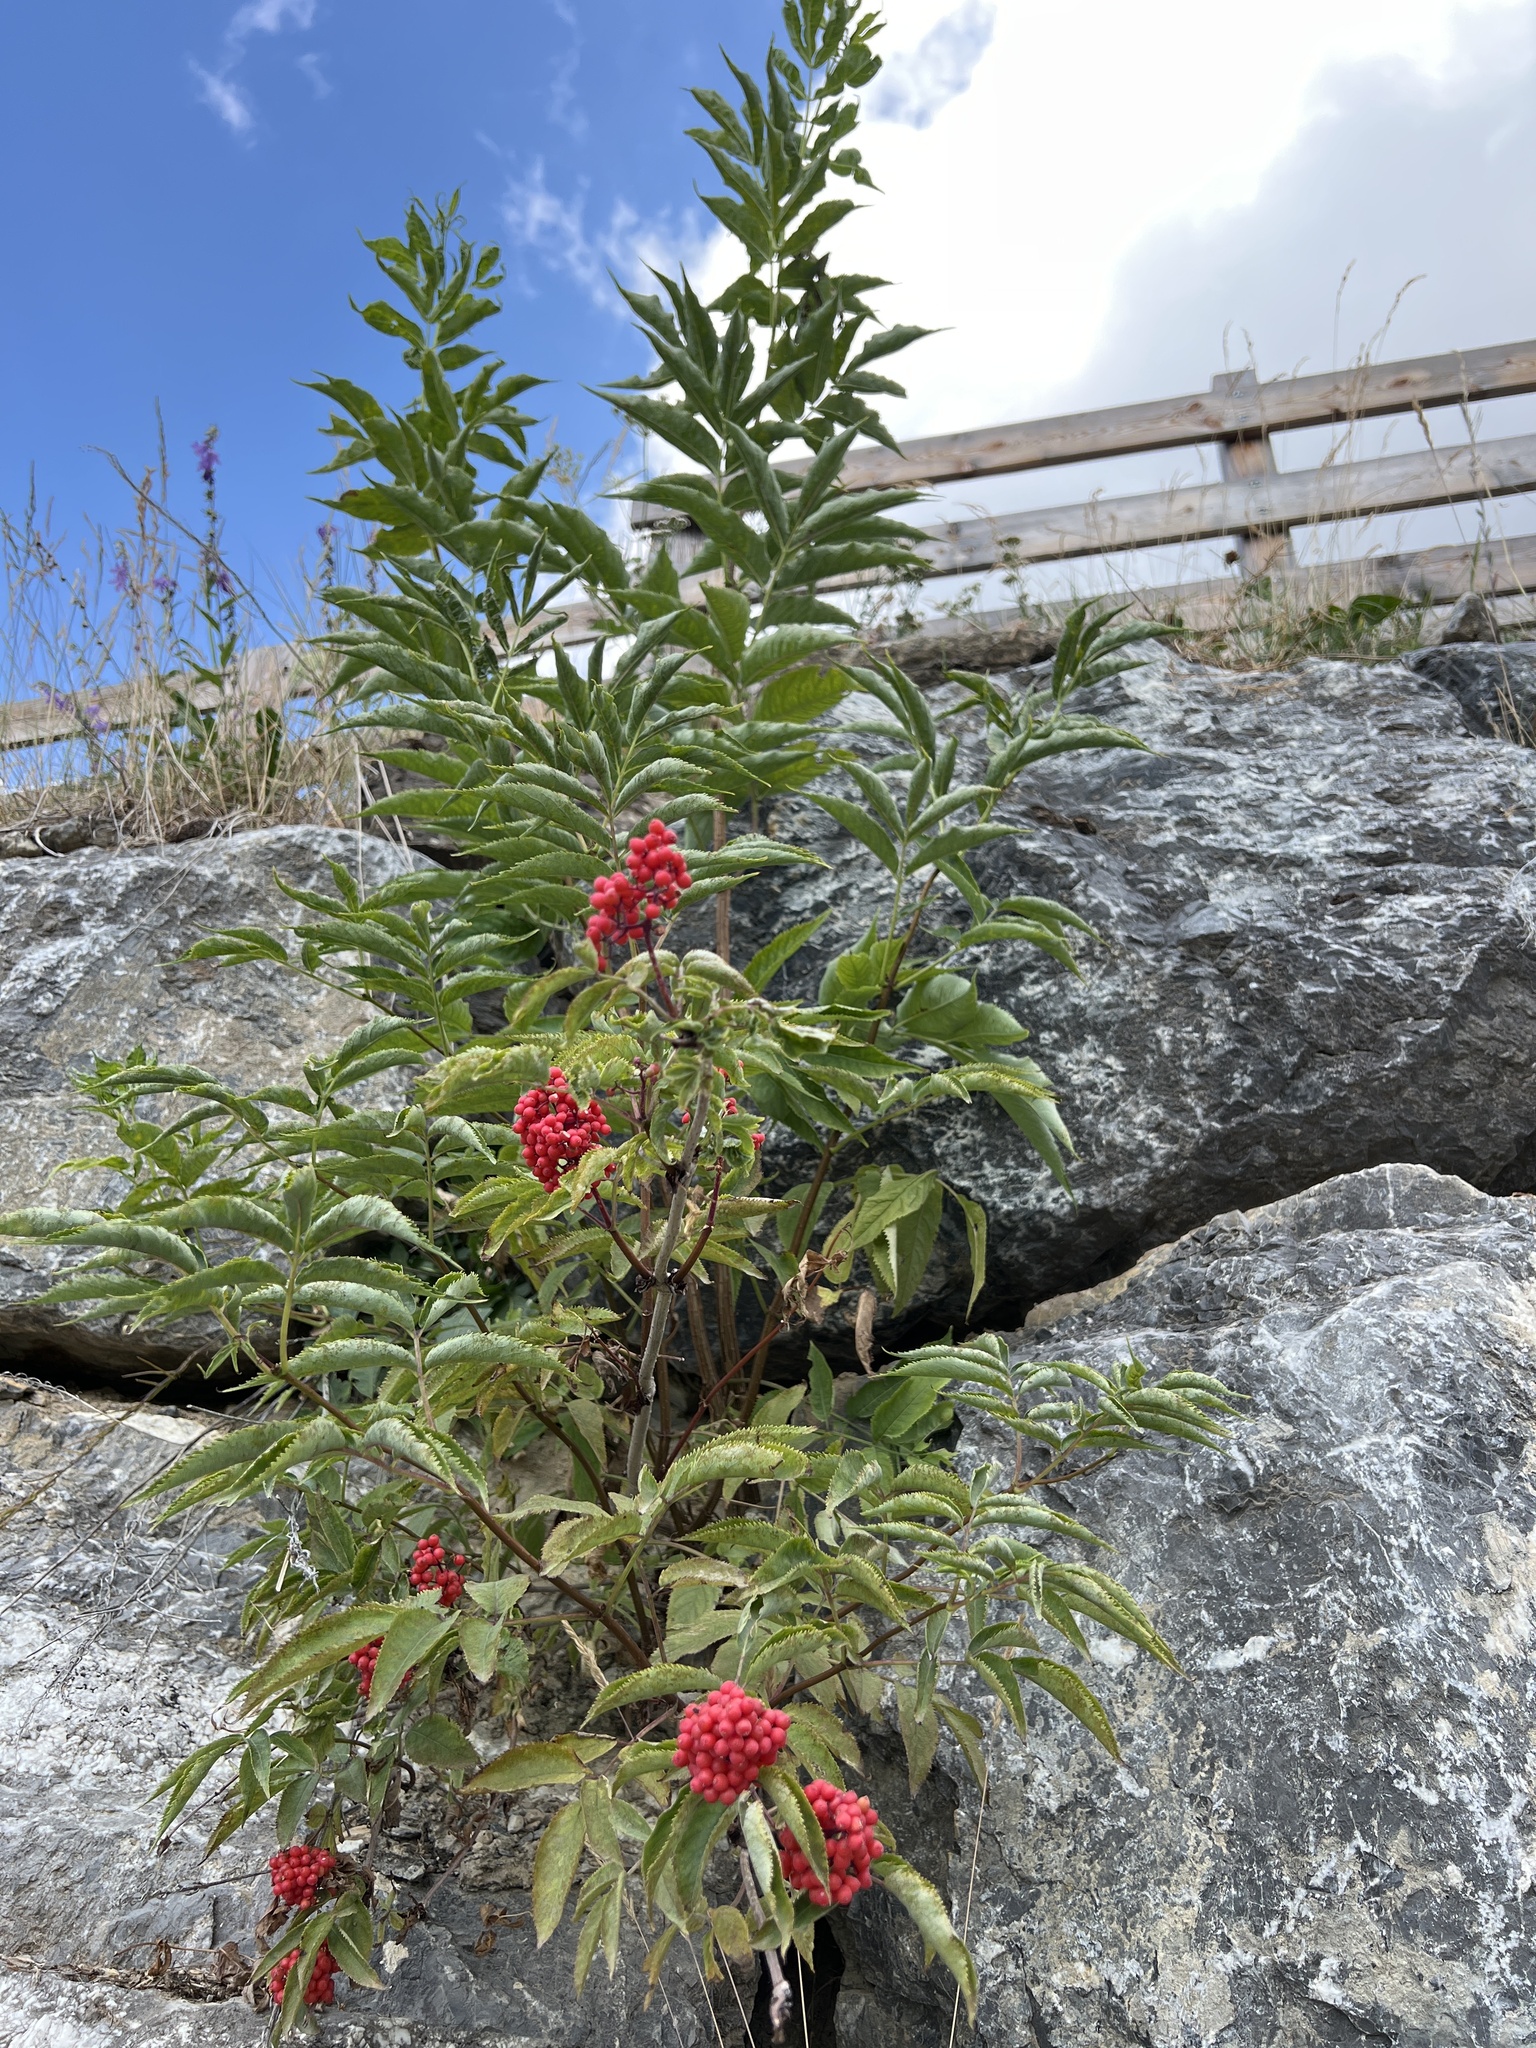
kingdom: Plantae
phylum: Tracheophyta
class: Magnoliopsida
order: Dipsacales
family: Viburnaceae
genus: Sambucus
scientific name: Sambucus racemosa
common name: Red-berried elder
